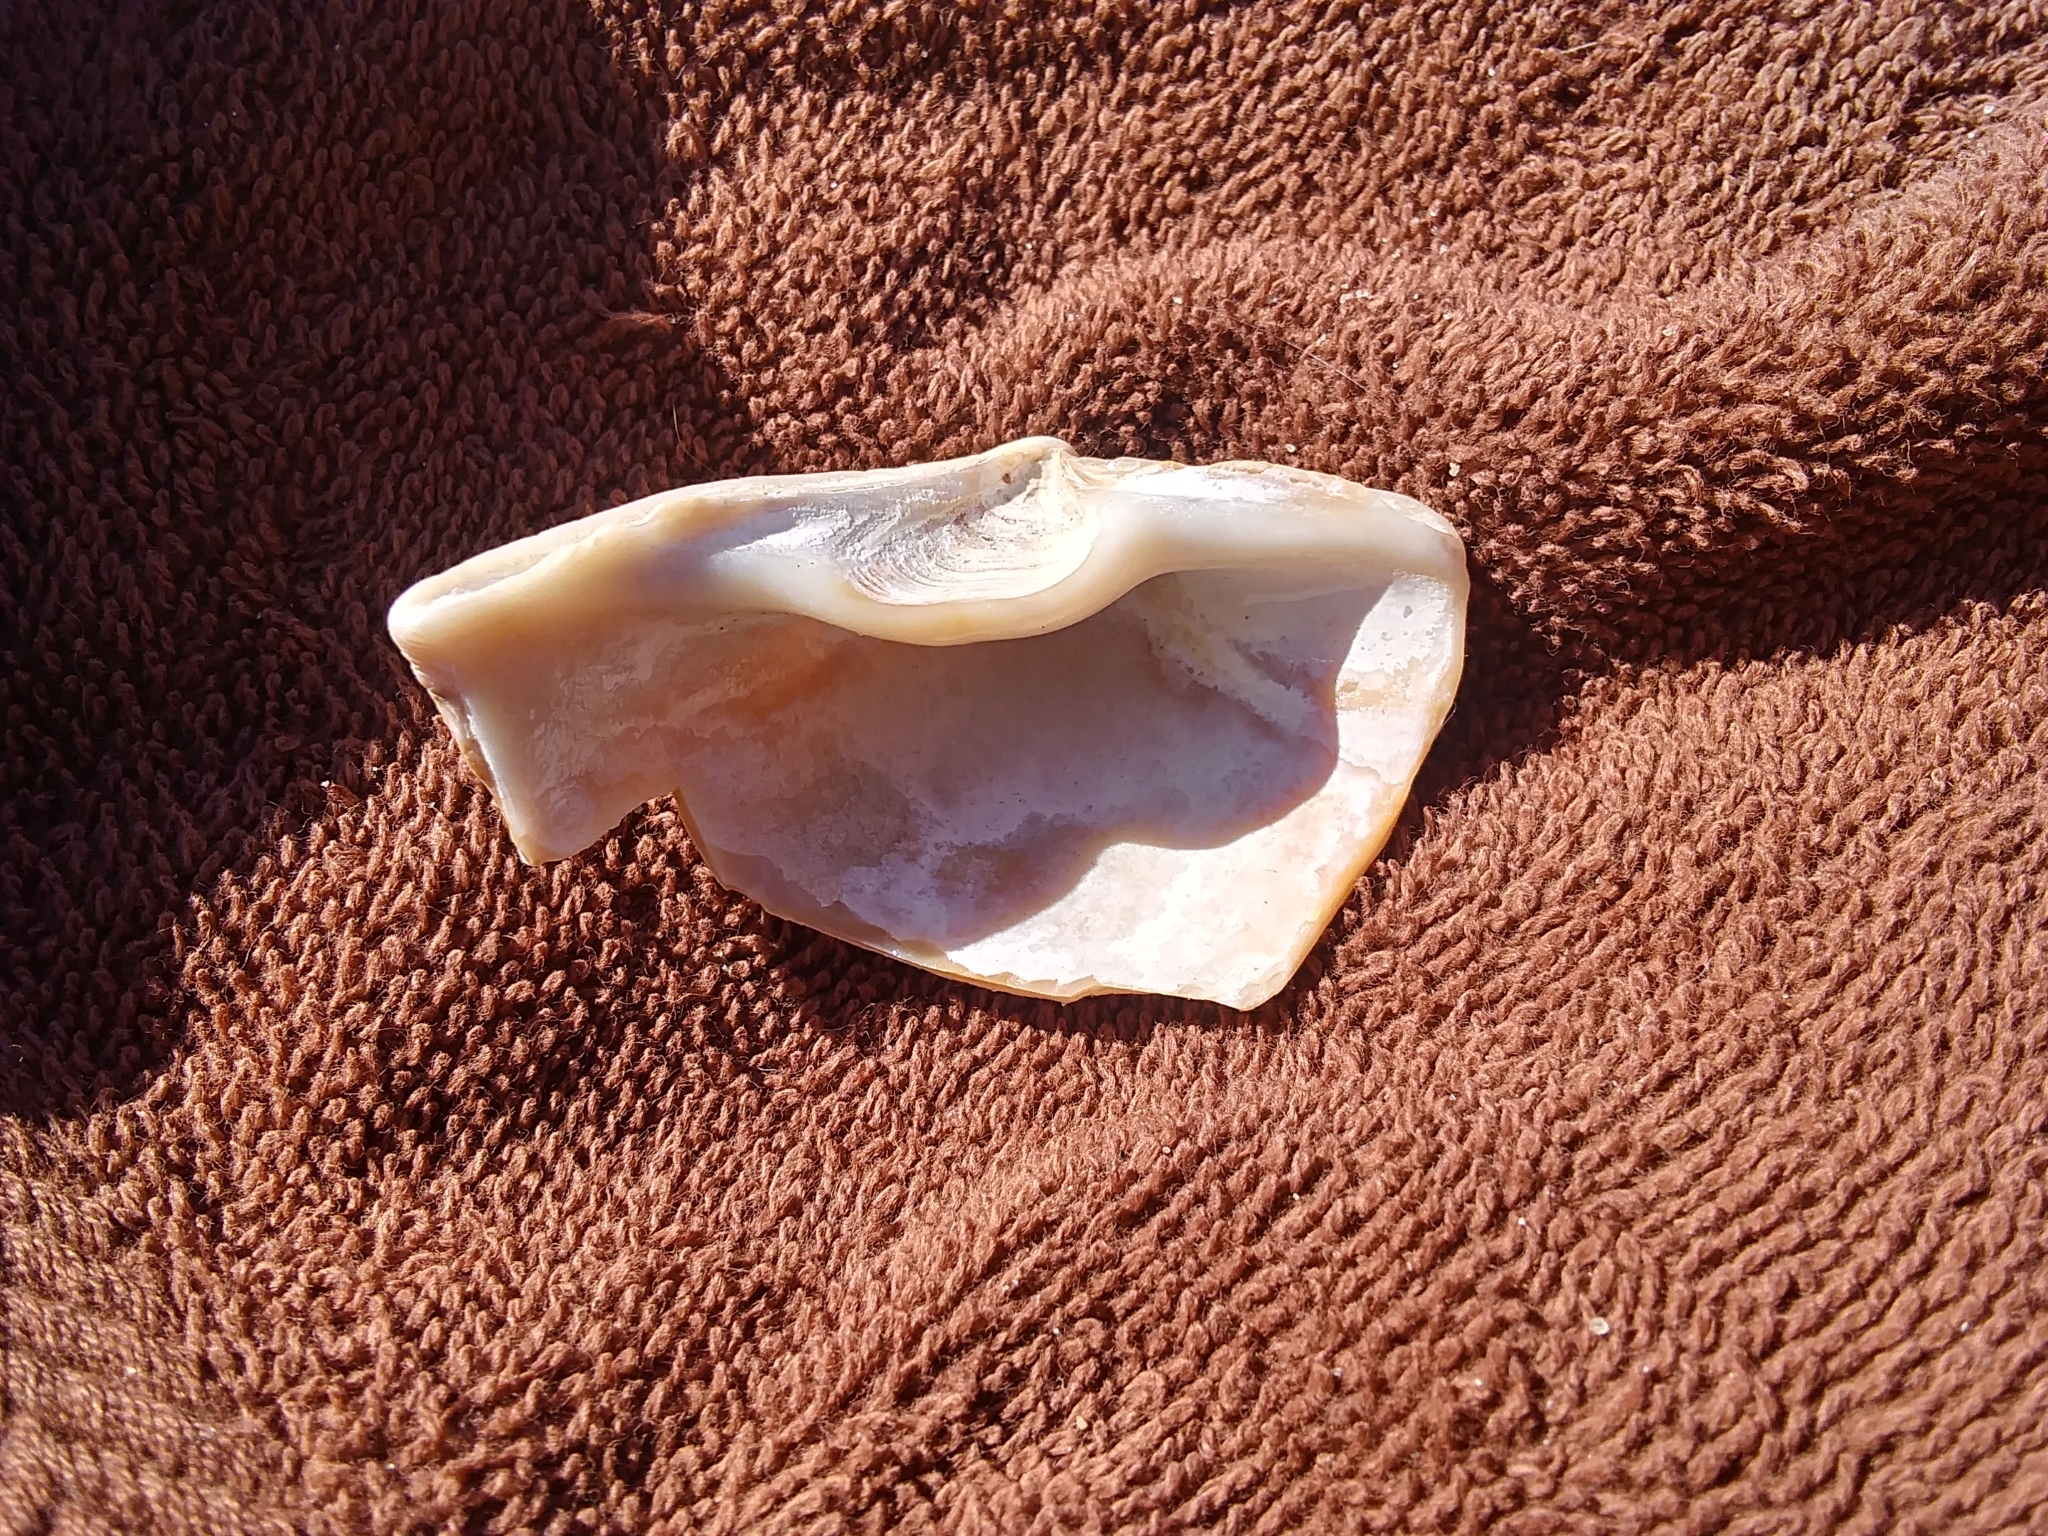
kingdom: Animalia
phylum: Mollusca
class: Bivalvia
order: Venerida
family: Mactridae
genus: Spisula
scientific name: Spisula solidissima
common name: Atlantic surf clam
